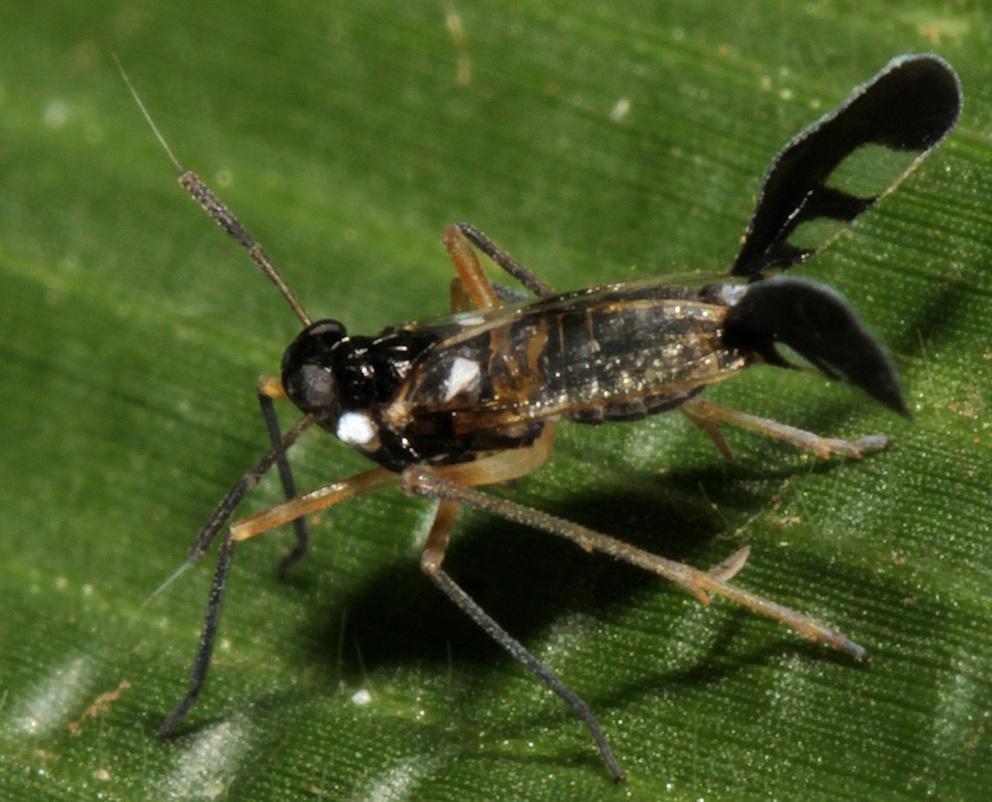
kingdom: Animalia
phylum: Arthropoda
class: Insecta
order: Hemiptera
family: Delphacidae
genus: Hapalomelus
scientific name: Hapalomelus flavipes
